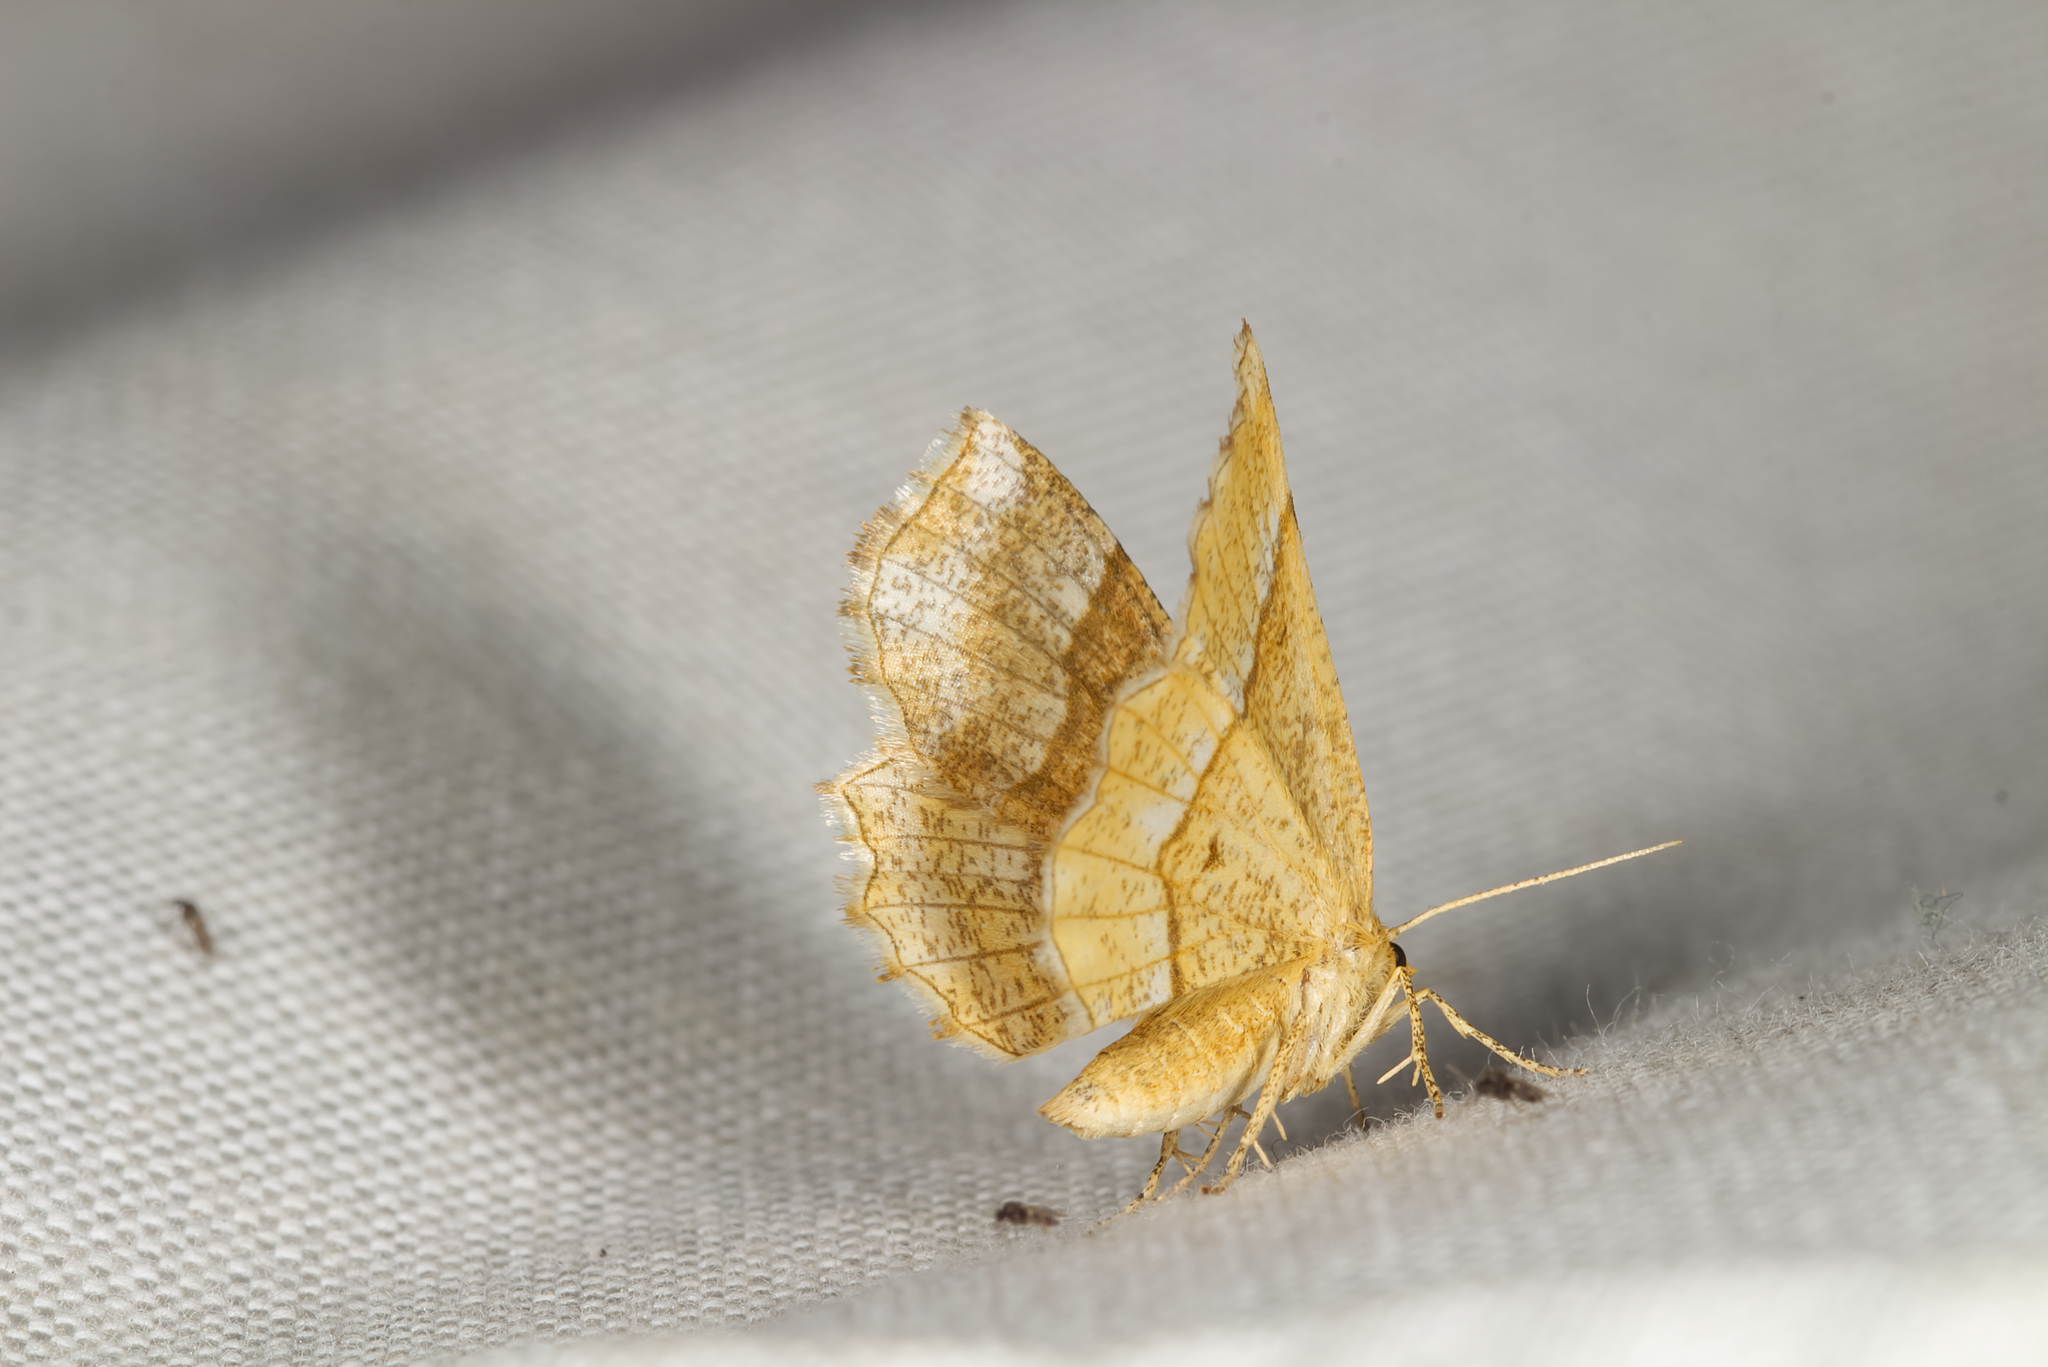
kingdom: Animalia
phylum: Arthropoda
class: Insecta
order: Lepidoptera
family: Geometridae
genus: Cepphis
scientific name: Cepphis advenaria
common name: Little thorn
